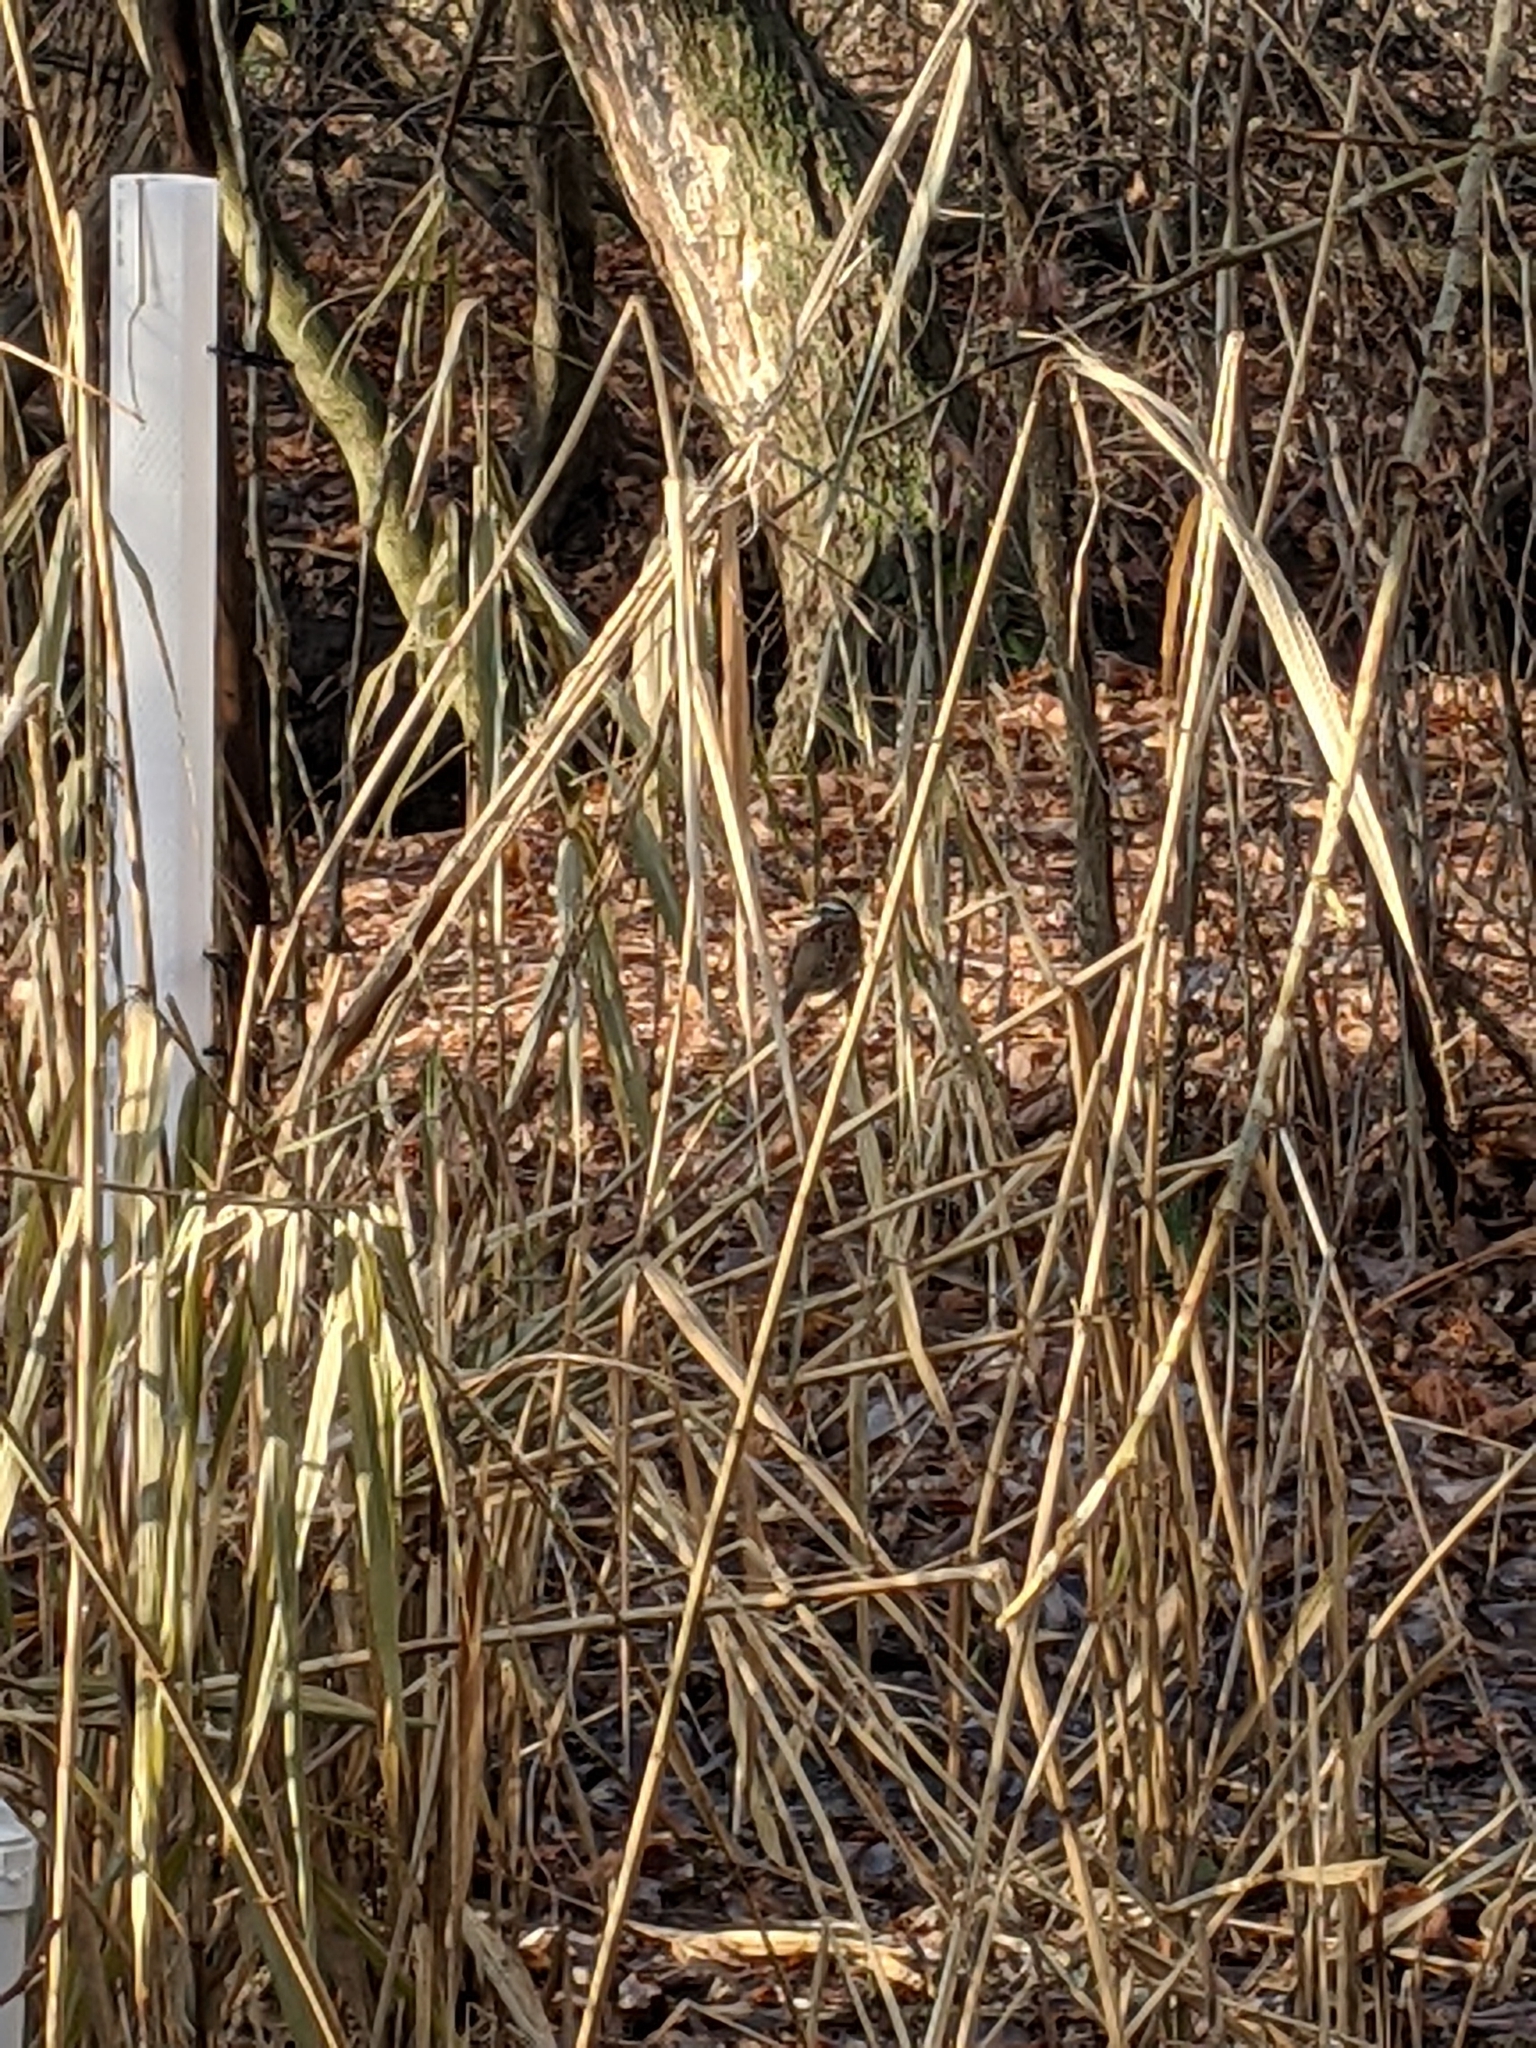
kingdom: Animalia
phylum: Chordata
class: Aves
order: Passeriformes
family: Passerellidae
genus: Zonotrichia
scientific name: Zonotrichia albicollis
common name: White-throated sparrow
